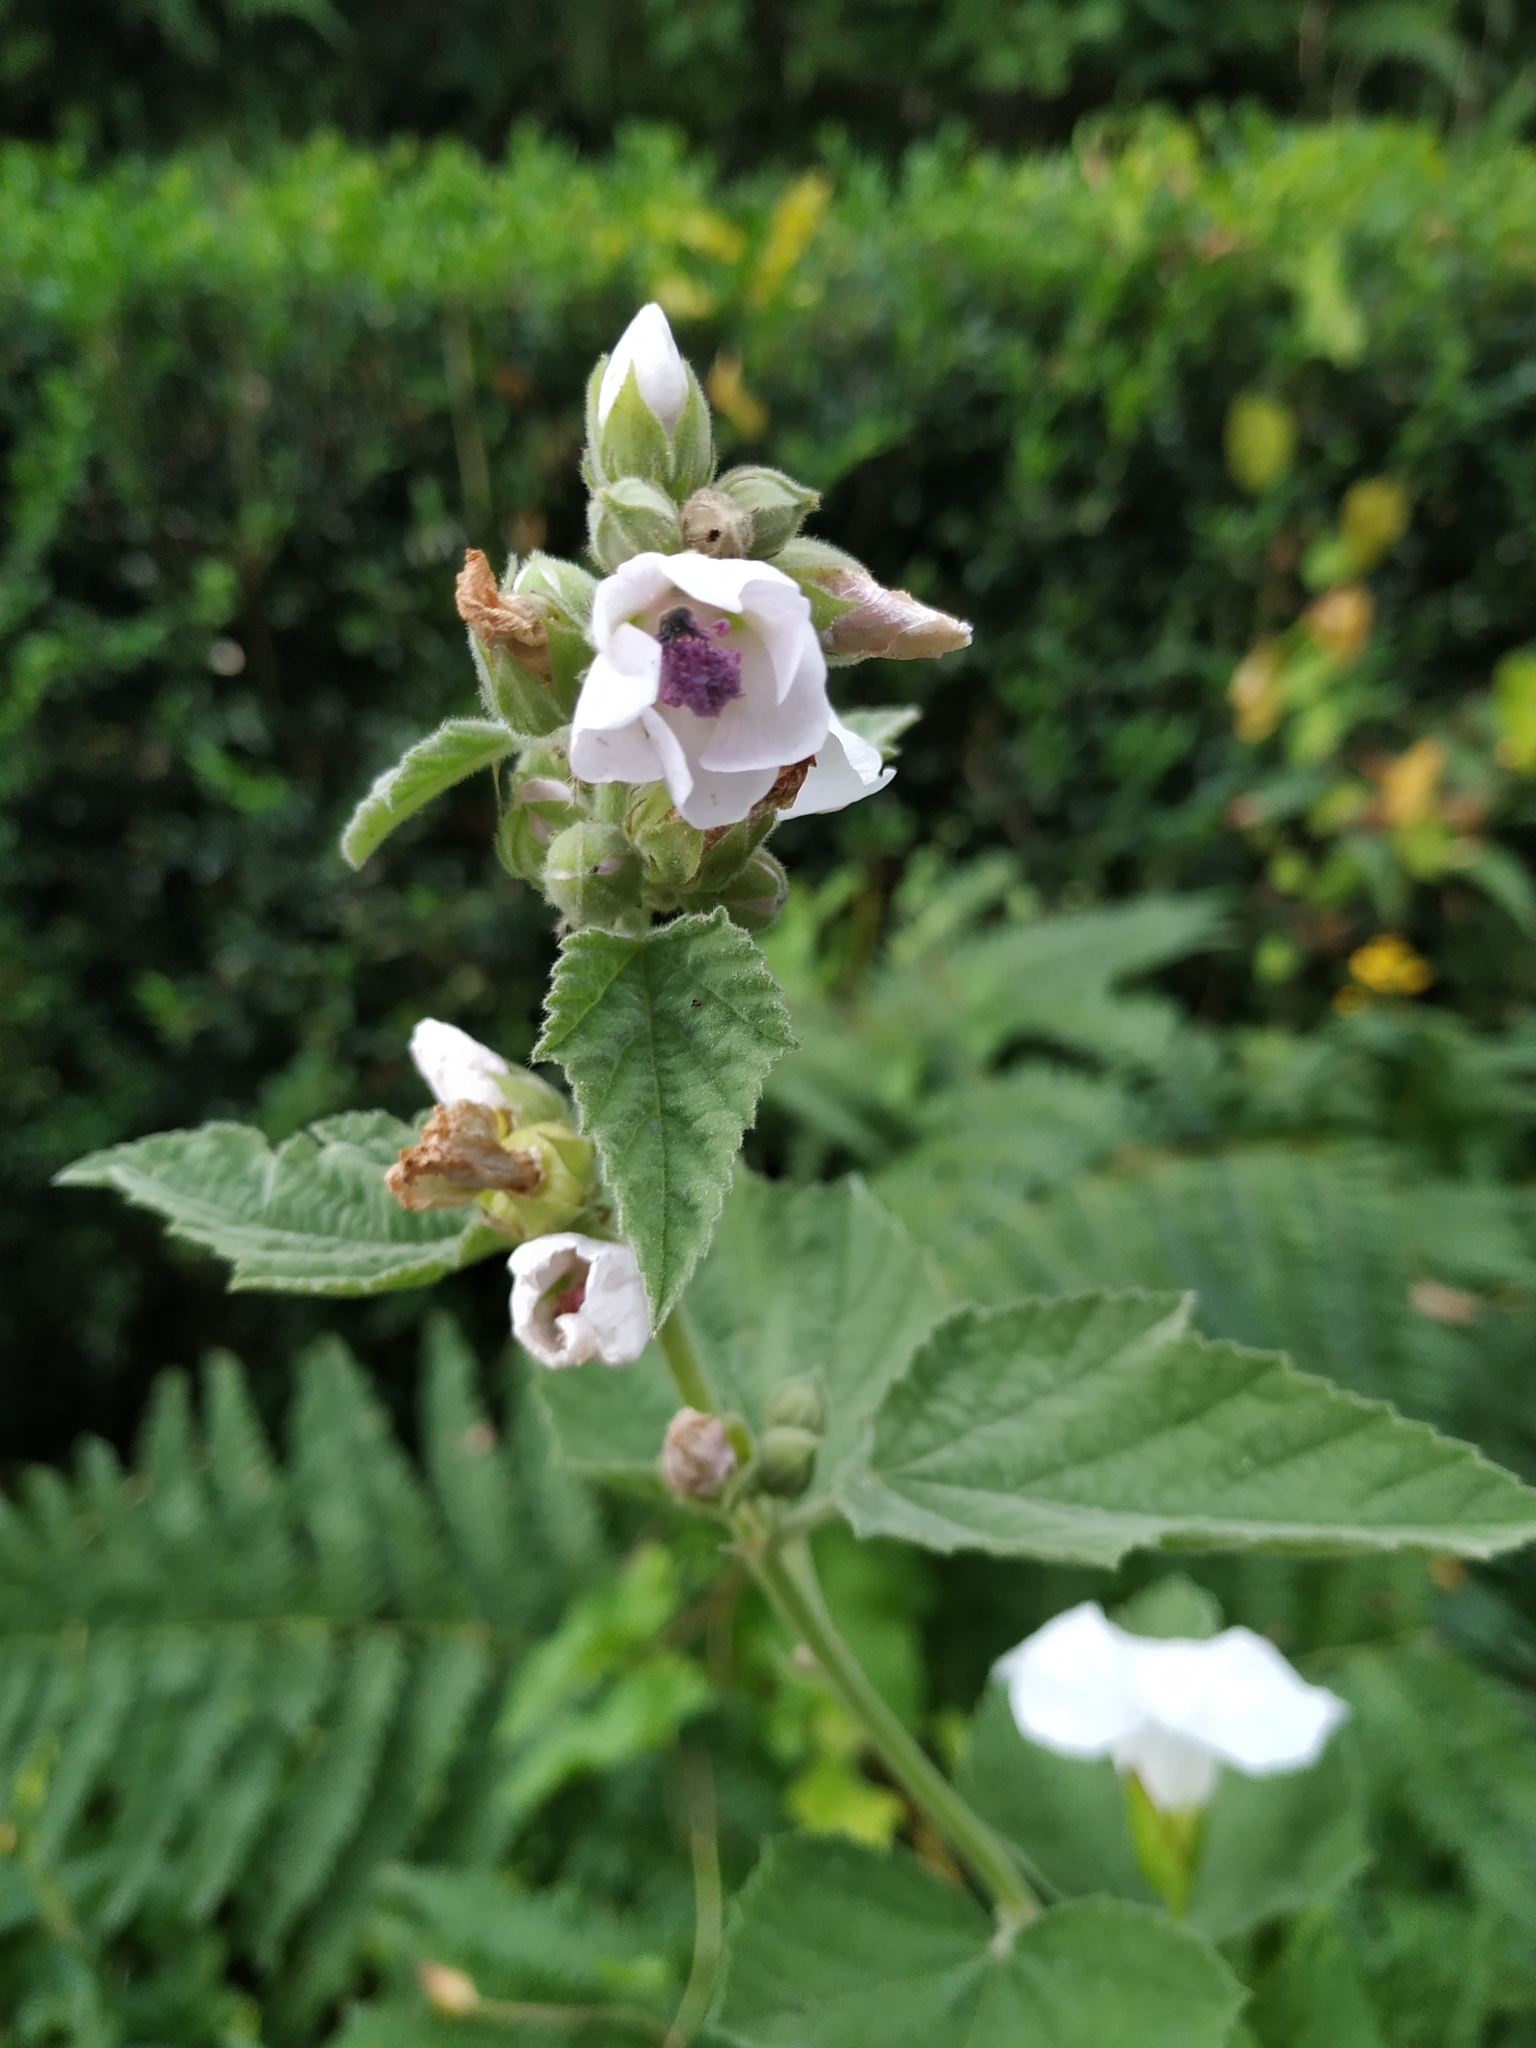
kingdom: Plantae
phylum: Tracheophyta
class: Magnoliopsida
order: Malvales
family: Malvaceae
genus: Althaea
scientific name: Althaea officinalis
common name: Marsh-mallow
